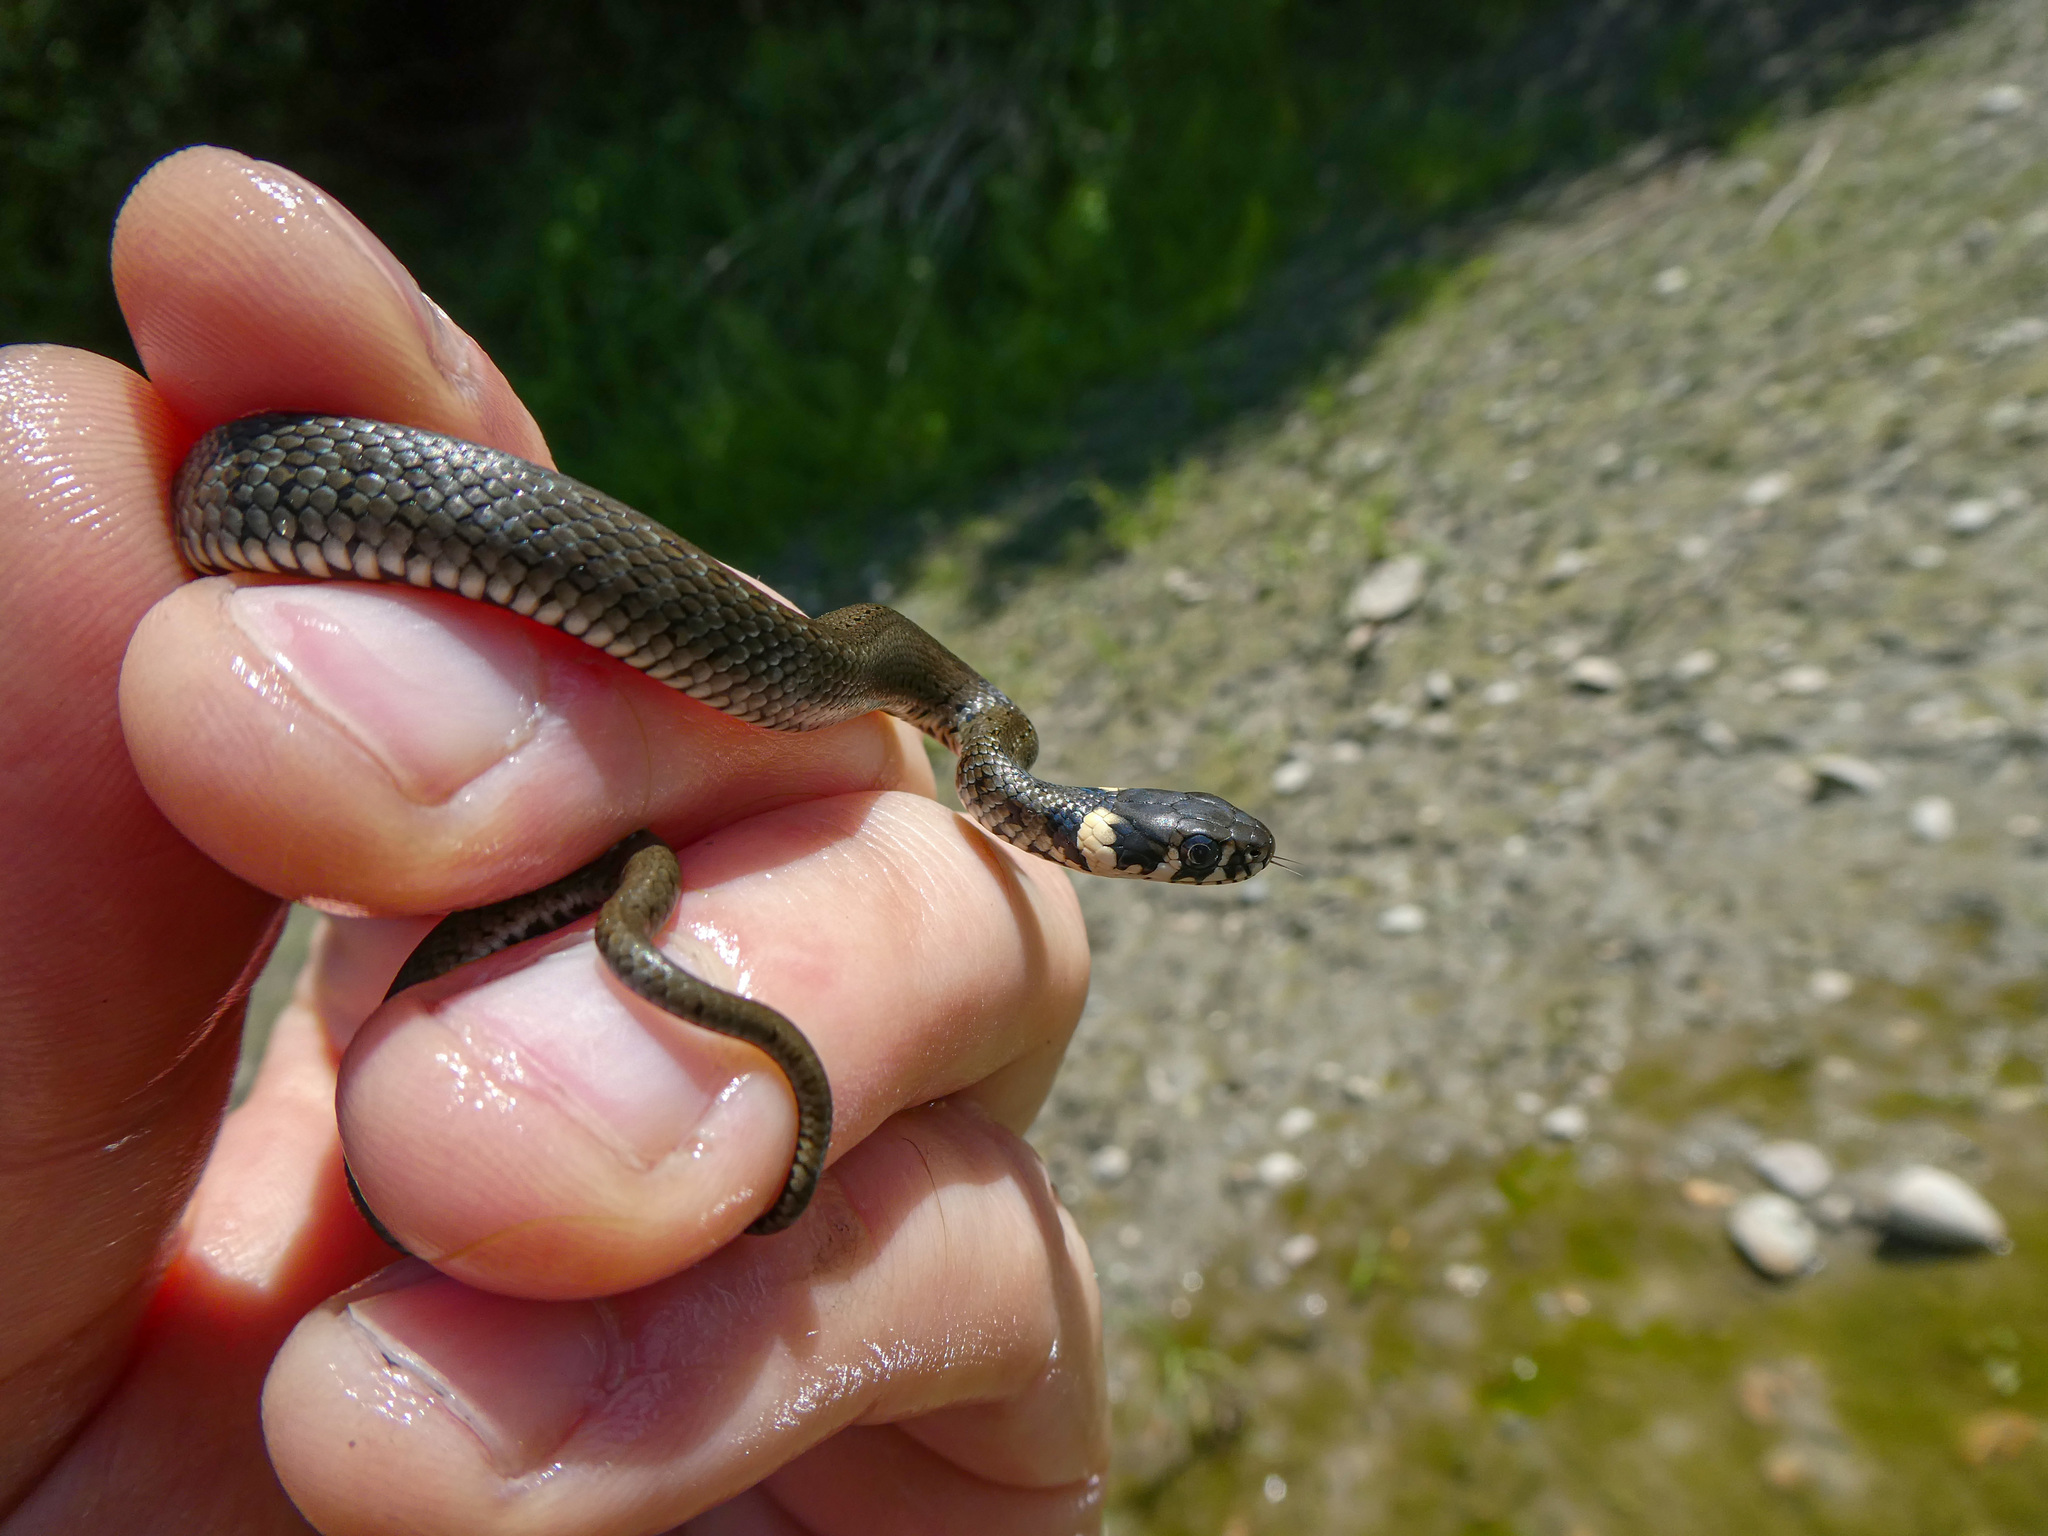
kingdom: Animalia
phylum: Chordata
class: Squamata
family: Colubridae
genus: Natrix
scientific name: Natrix natrix
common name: Grass snake
